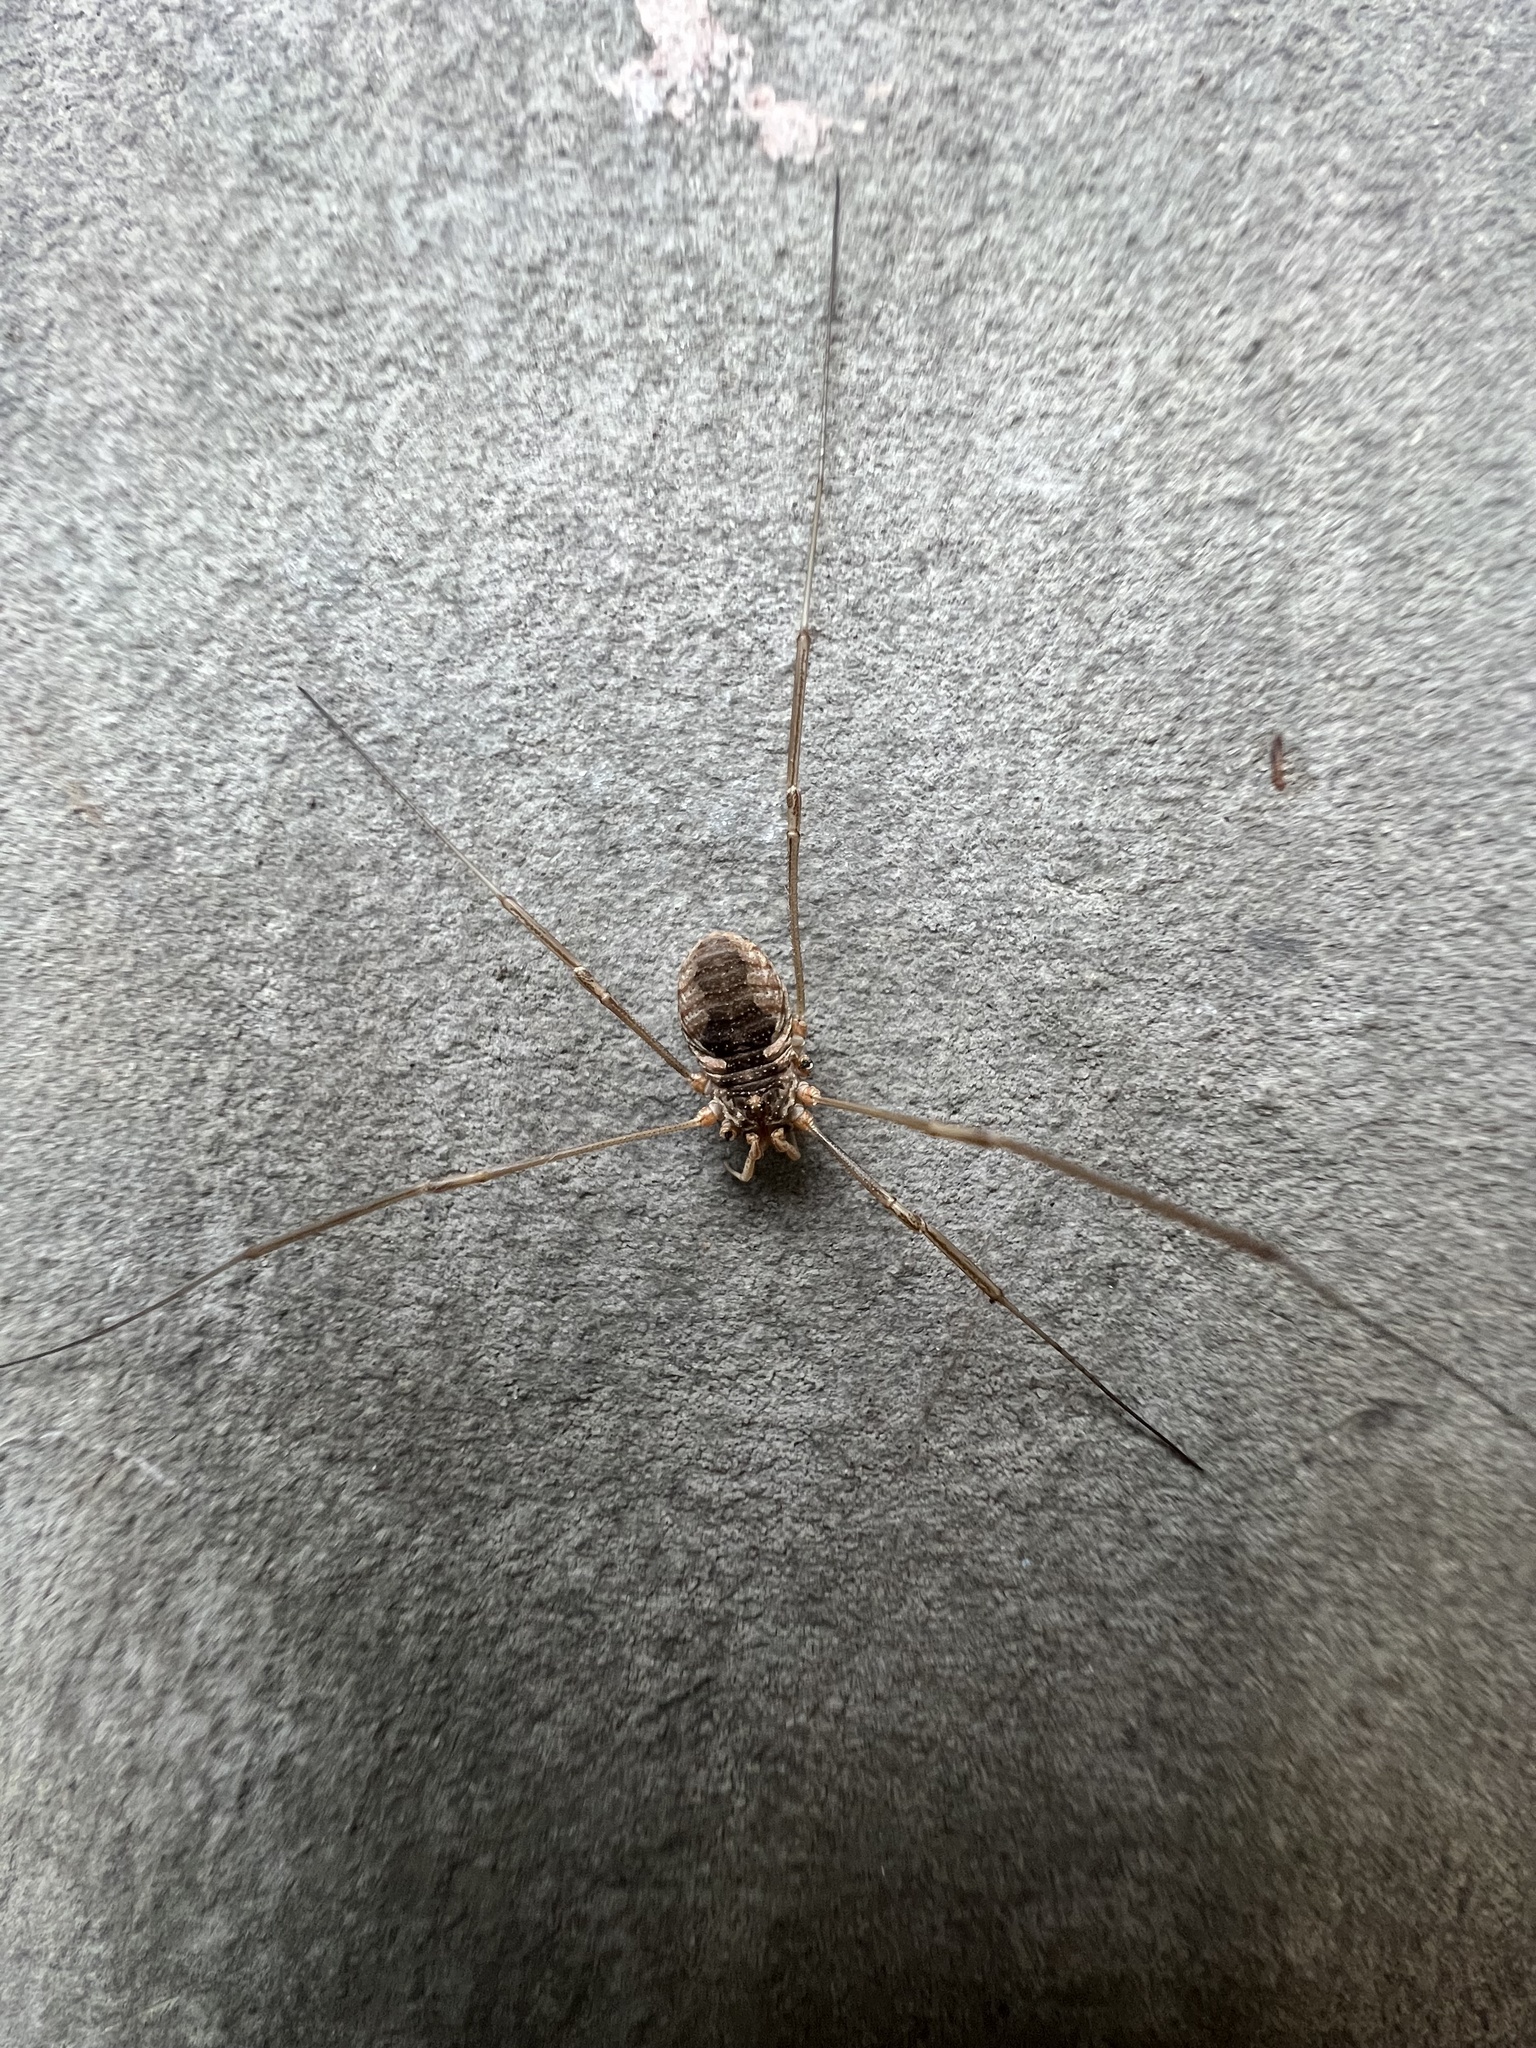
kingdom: Animalia
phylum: Arthropoda
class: Arachnida
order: Opiliones
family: Phalangiidae
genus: Phalangium
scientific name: Phalangium opilio
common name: Daddy longleg
